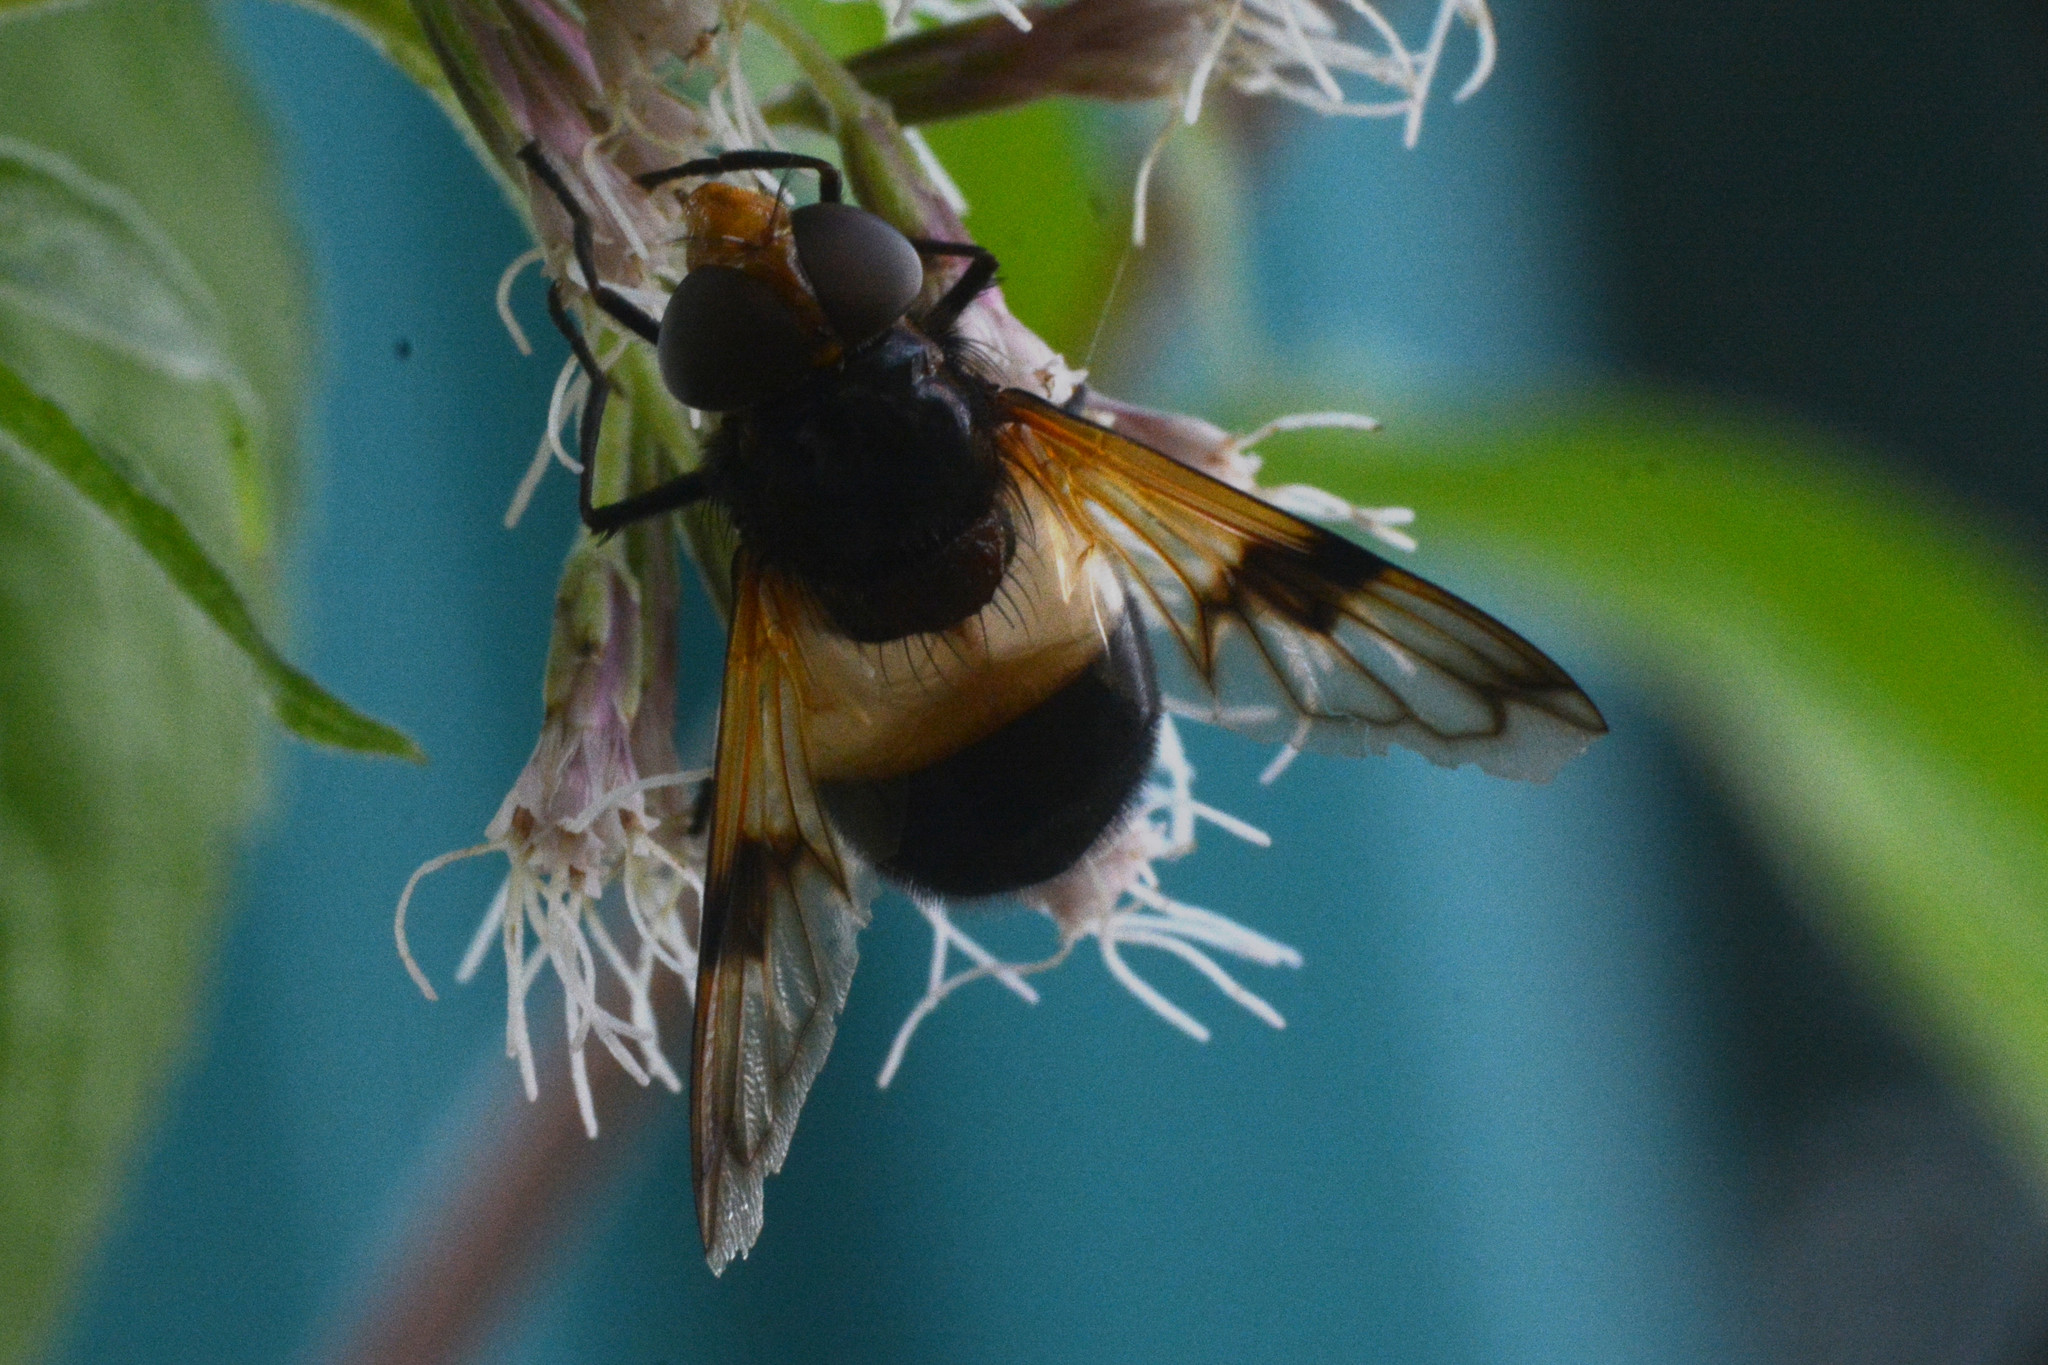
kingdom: Animalia
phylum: Arthropoda
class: Insecta
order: Diptera
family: Syrphidae
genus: Volucella
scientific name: Volucella pellucens
